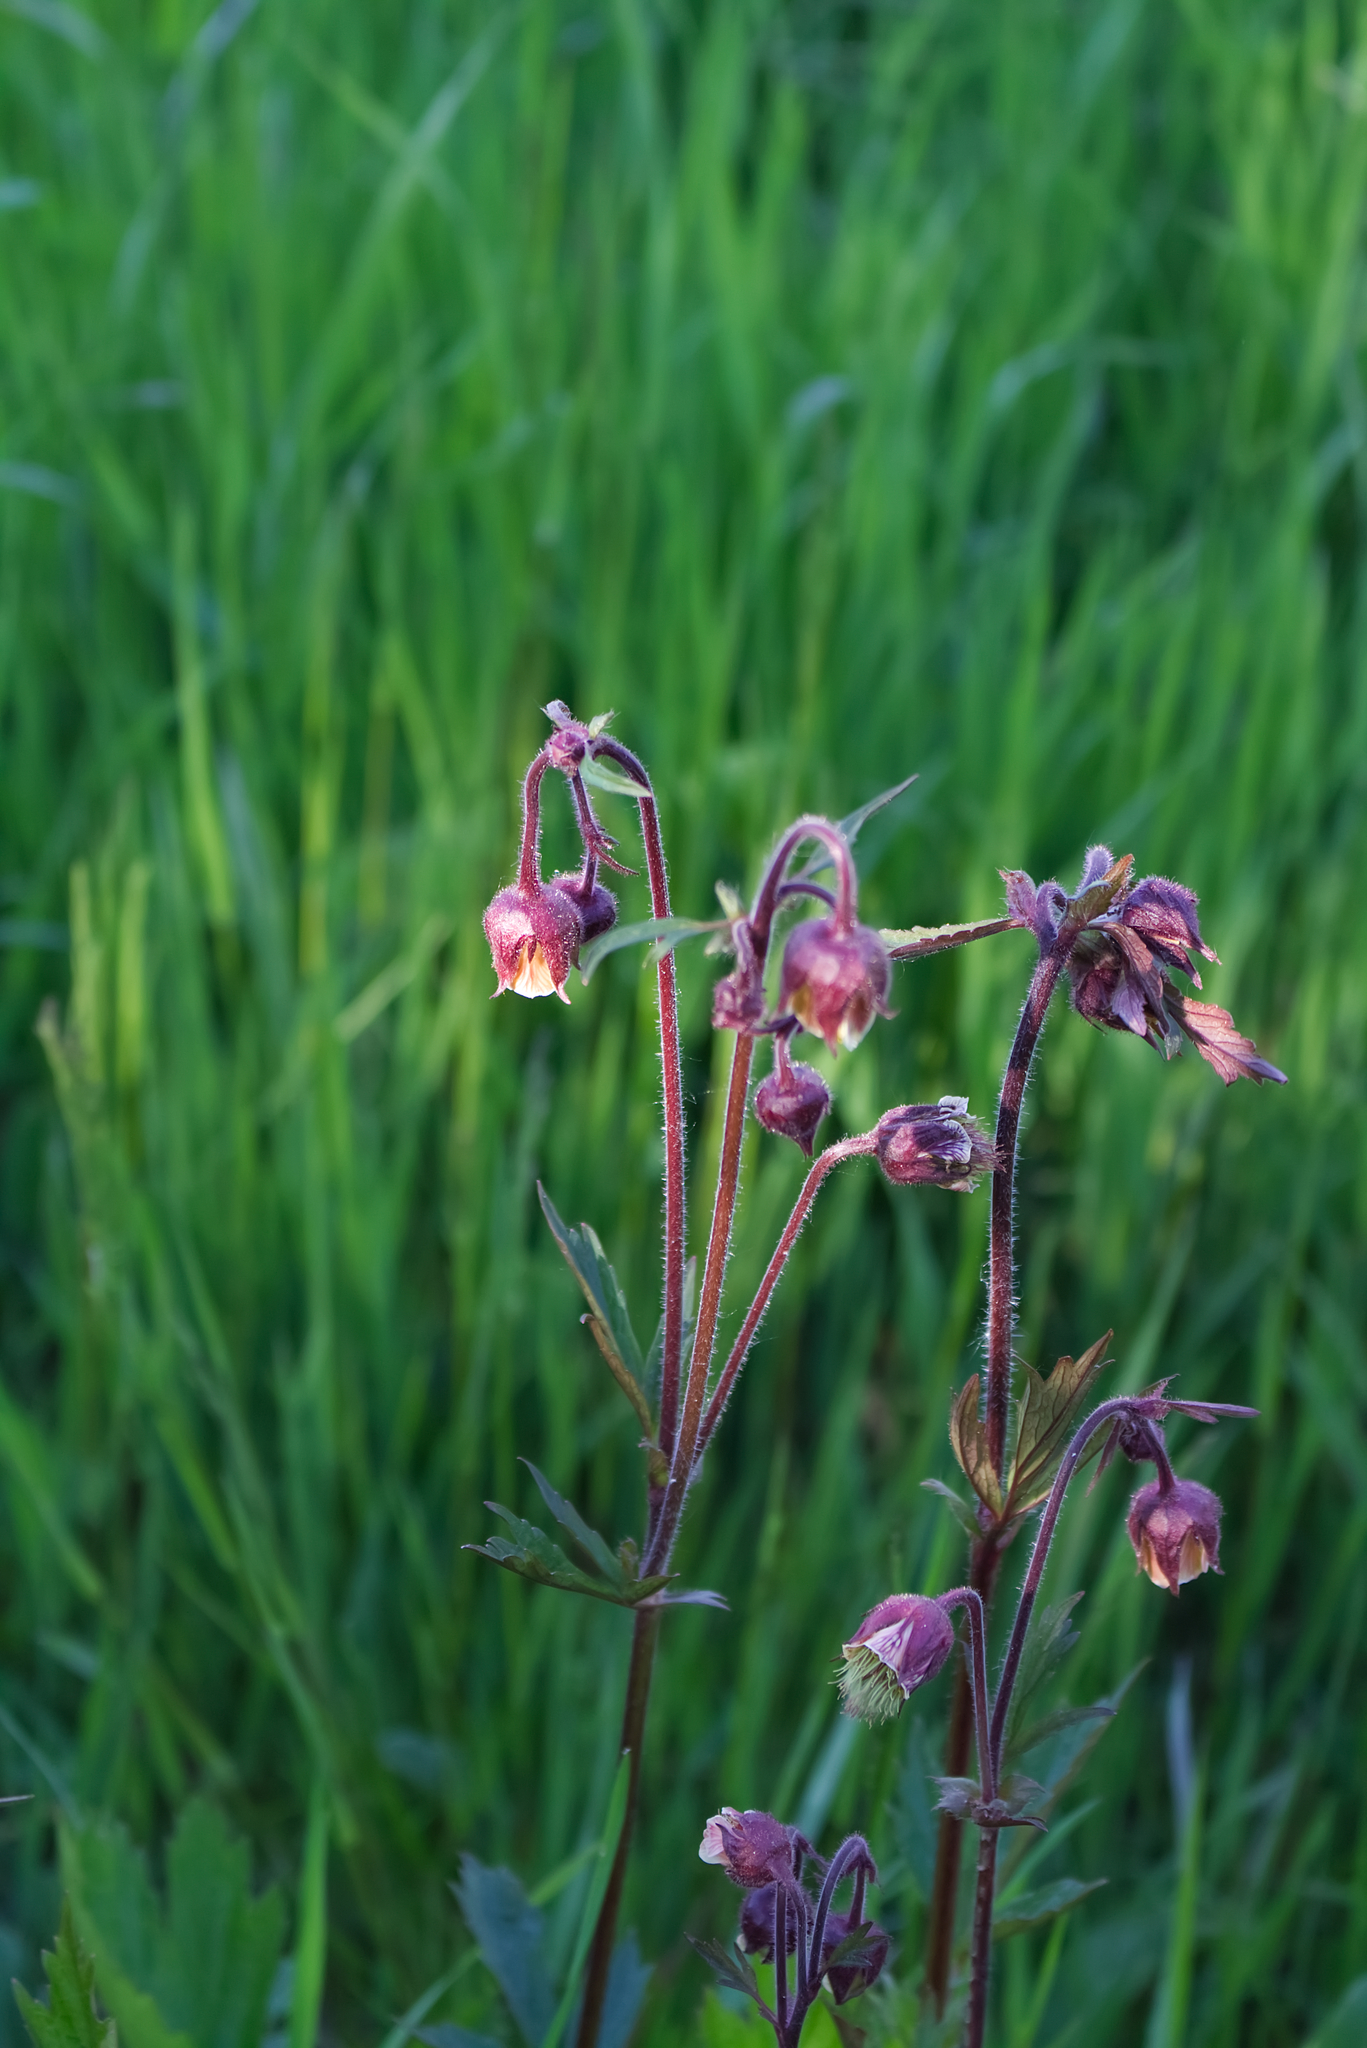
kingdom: Plantae
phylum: Tracheophyta
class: Magnoliopsida
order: Rosales
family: Rosaceae
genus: Geum
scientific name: Geum rivale
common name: Water avens
